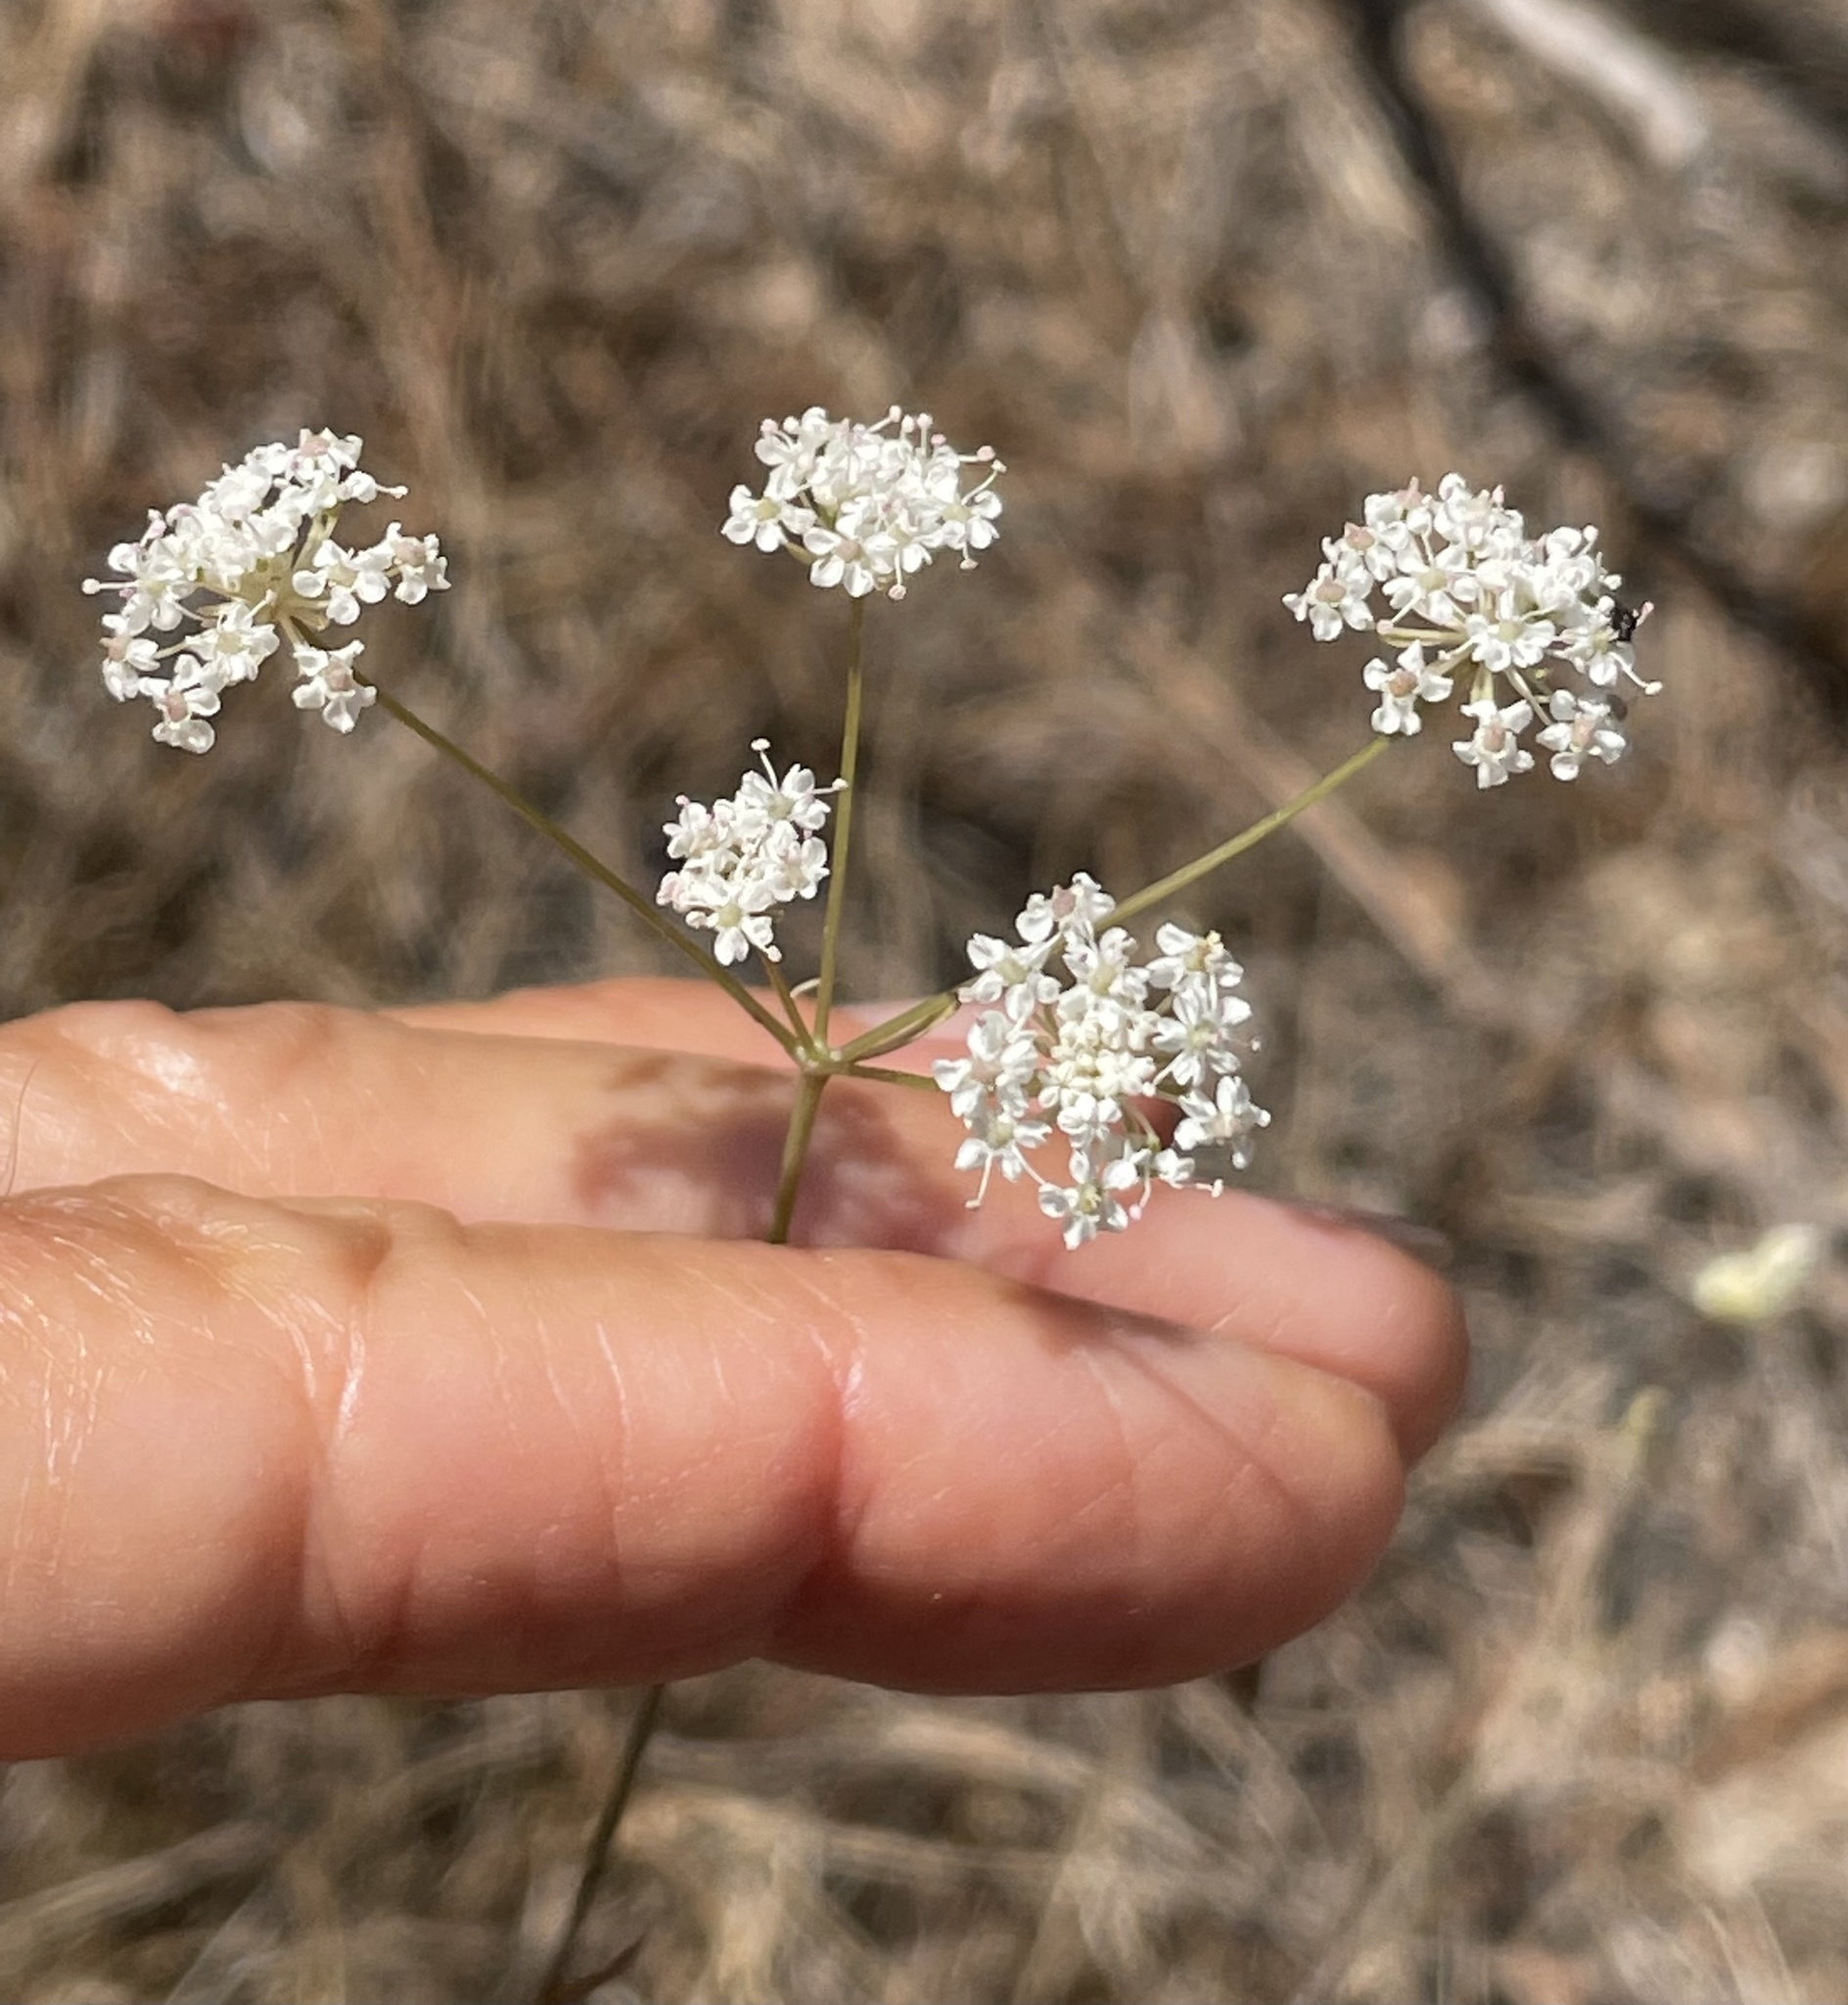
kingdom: Plantae
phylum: Tracheophyta
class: Magnoliopsida
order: Apiales
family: Apiaceae
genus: Perideridia
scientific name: Perideridia gairdneri
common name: False caraway
